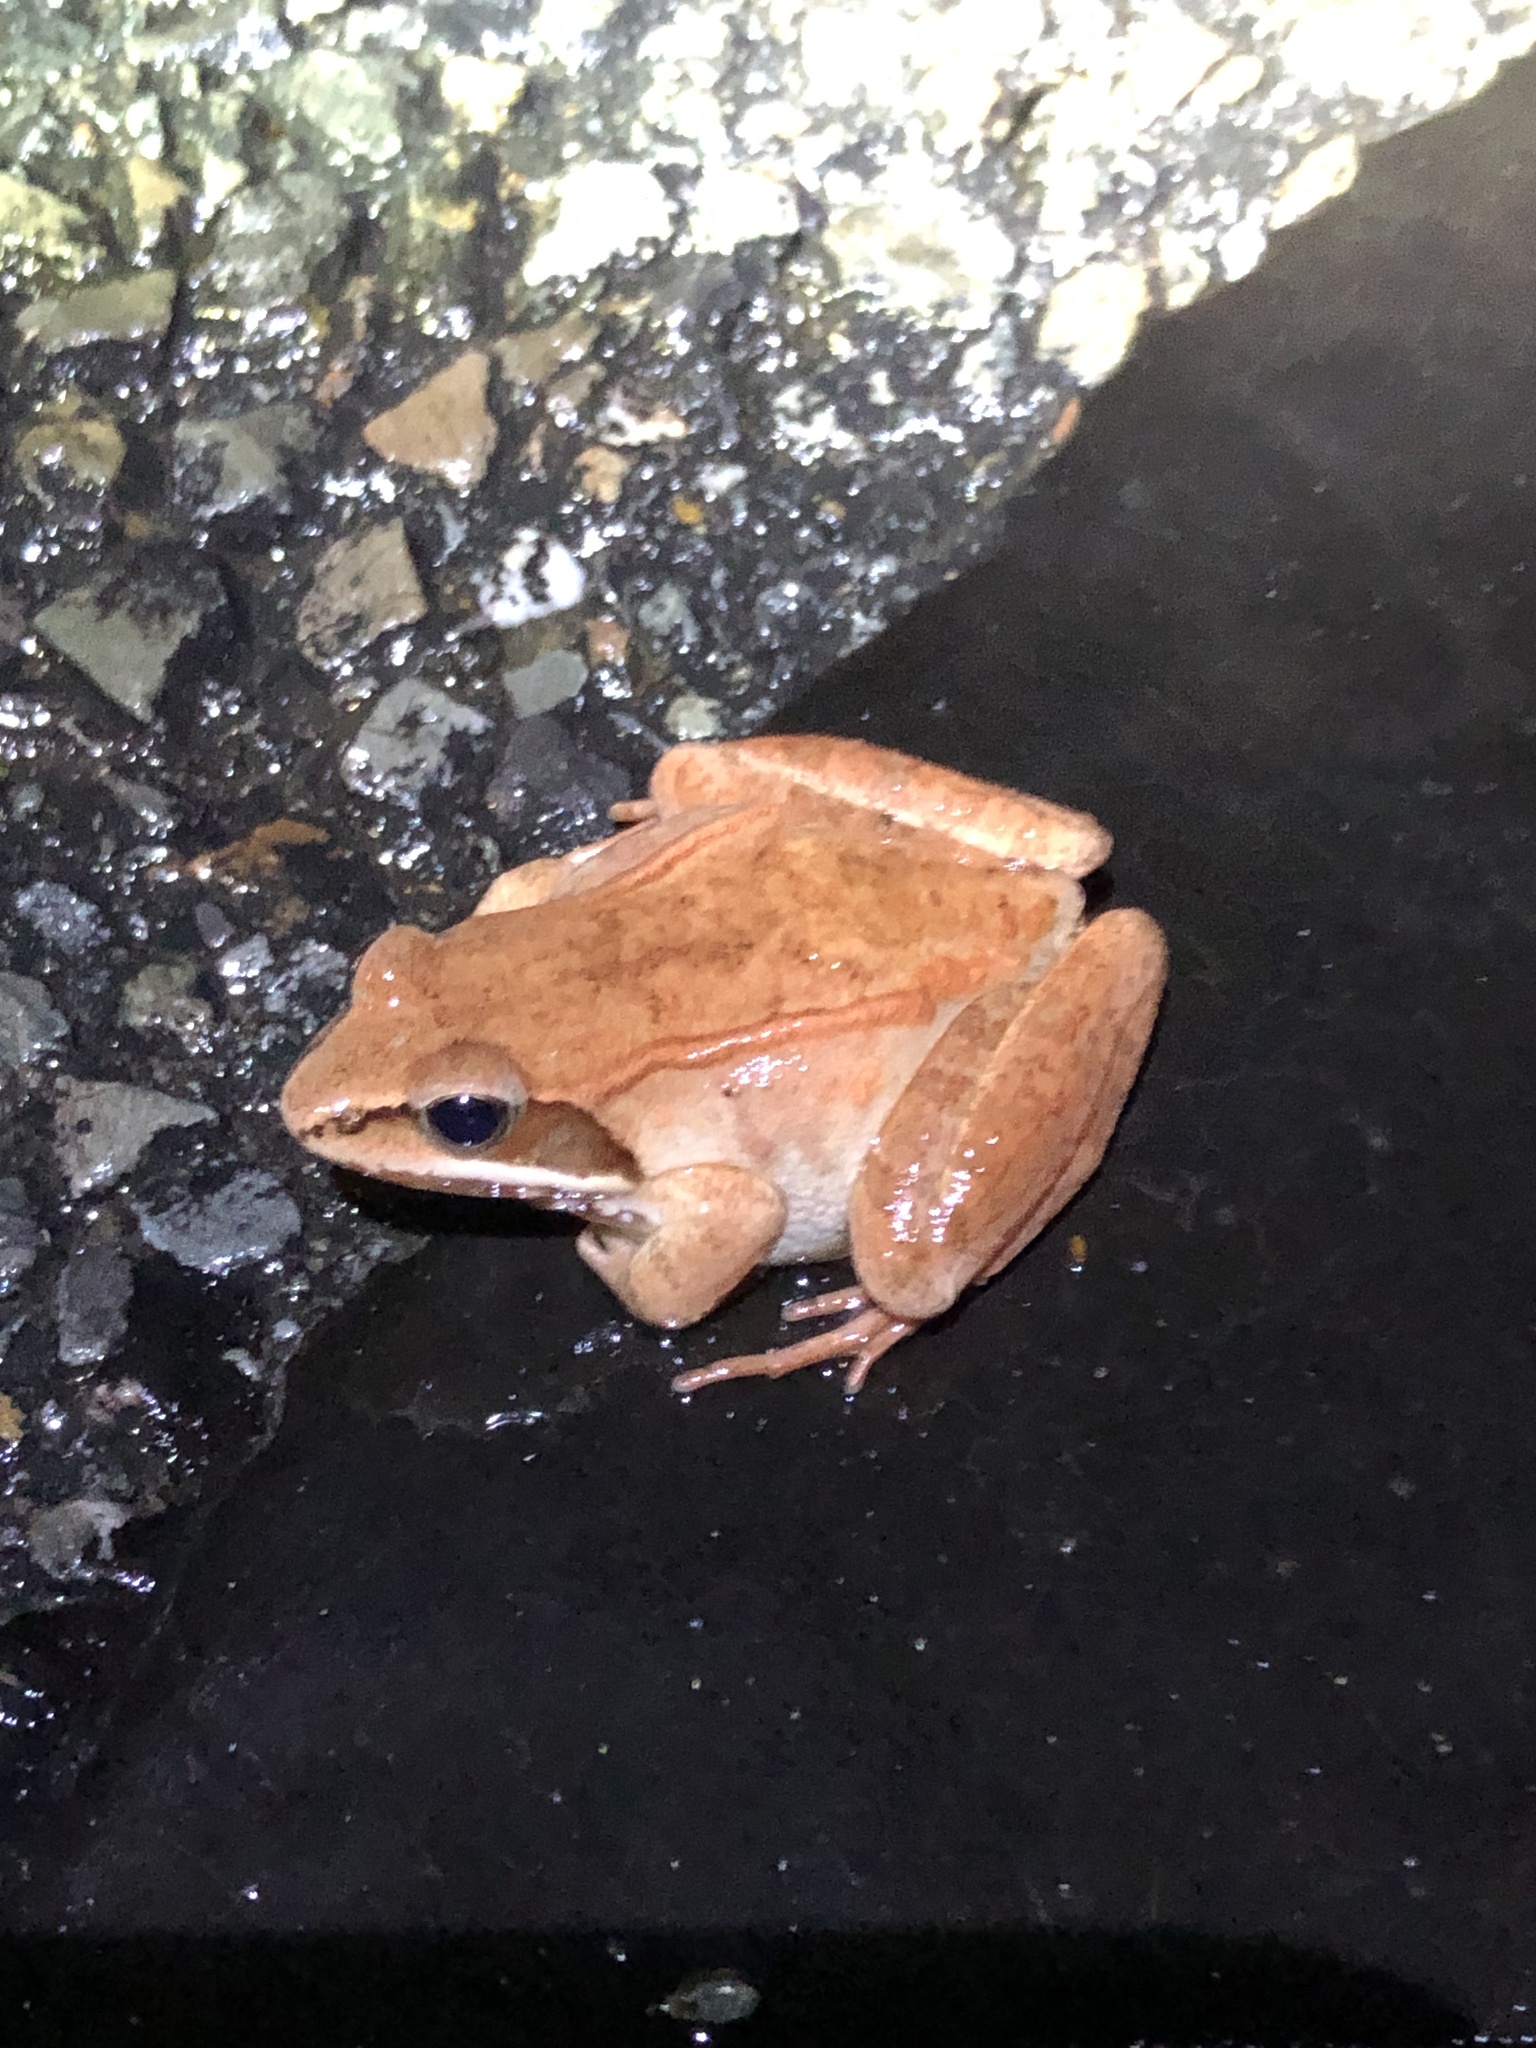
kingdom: Animalia
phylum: Chordata
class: Amphibia
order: Anura
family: Ranidae
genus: Lithobates
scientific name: Lithobates sylvaticus
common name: Wood frog
